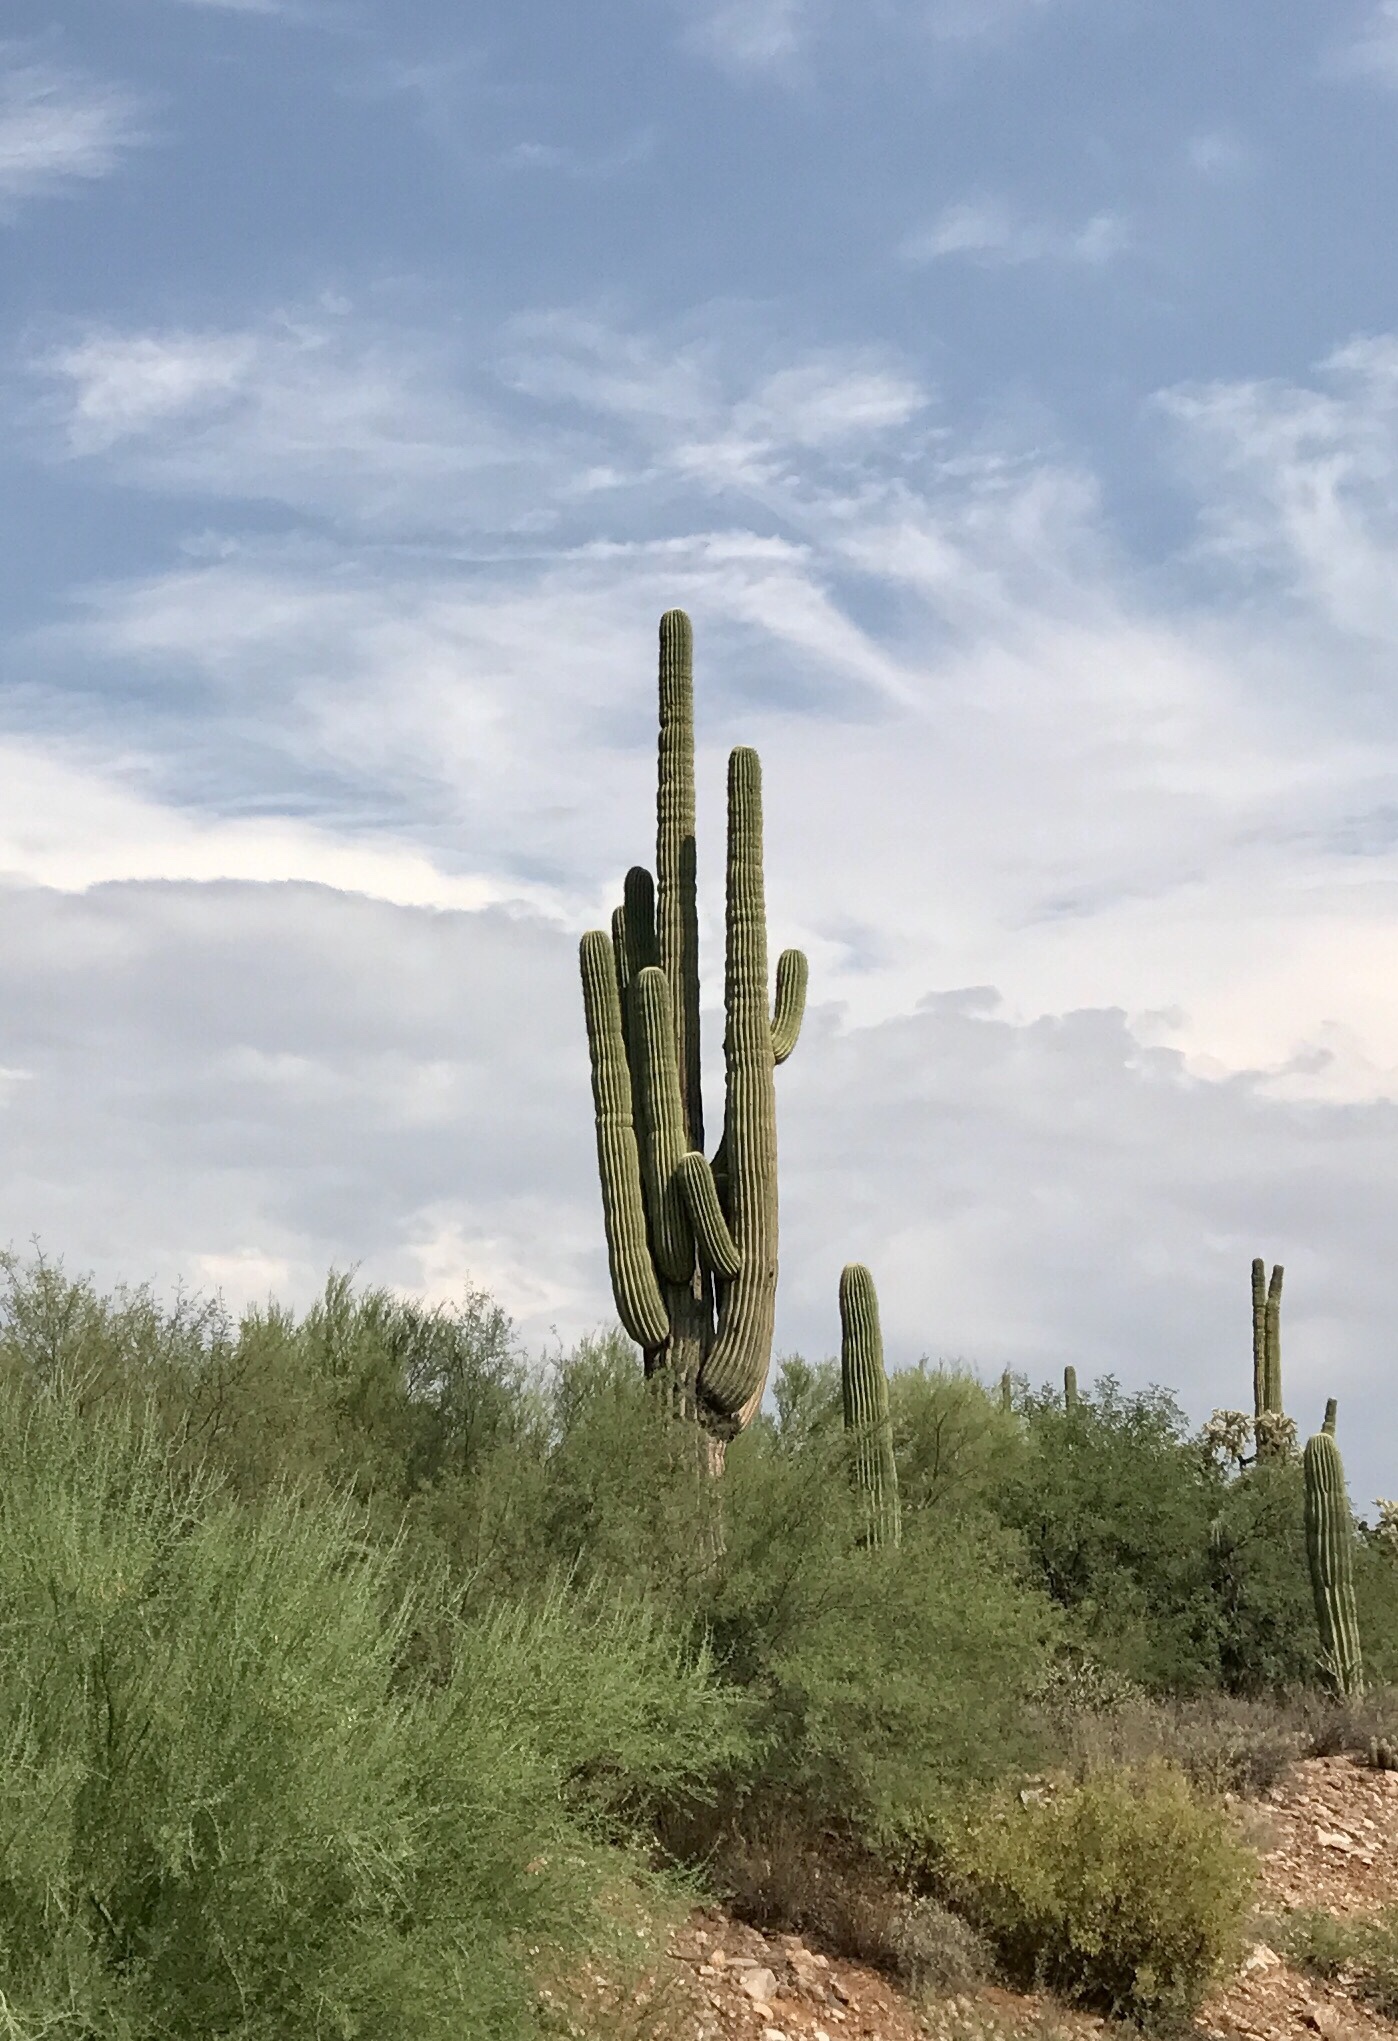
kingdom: Plantae
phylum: Tracheophyta
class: Magnoliopsida
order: Caryophyllales
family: Cactaceae
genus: Carnegiea
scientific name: Carnegiea gigantea
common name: Saguaro
